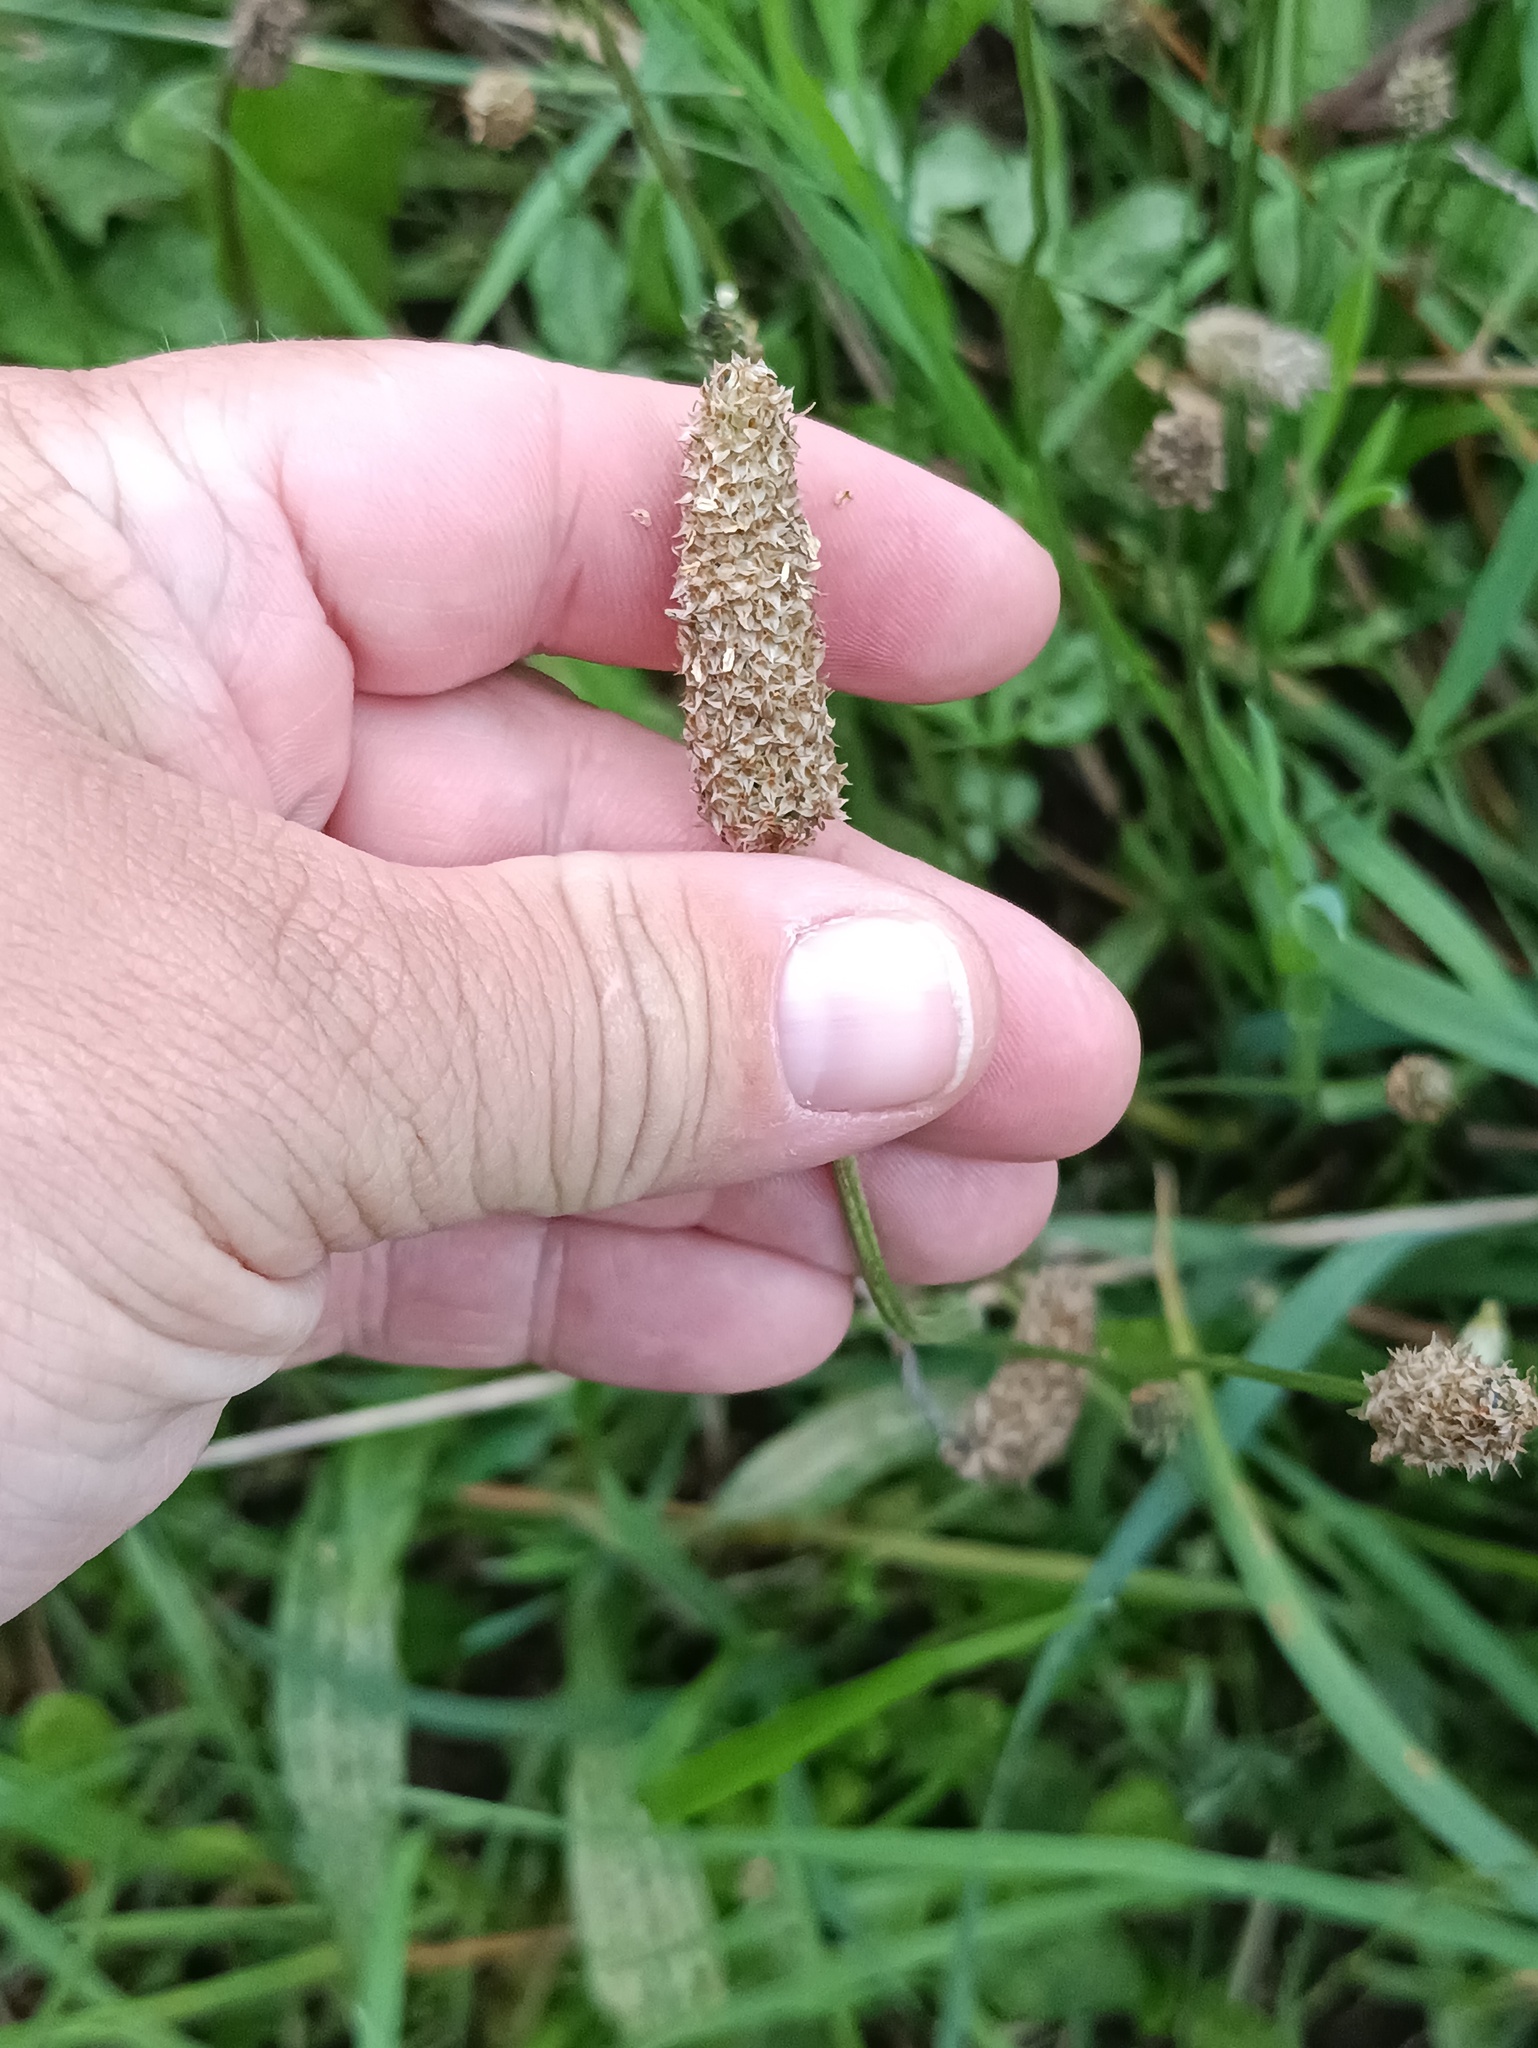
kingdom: Plantae
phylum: Tracheophyta
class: Magnoliopsida
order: Lamiales
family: Plantaginaceae
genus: Plantago
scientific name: Plantago lanceolata
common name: Ribwort plantain
